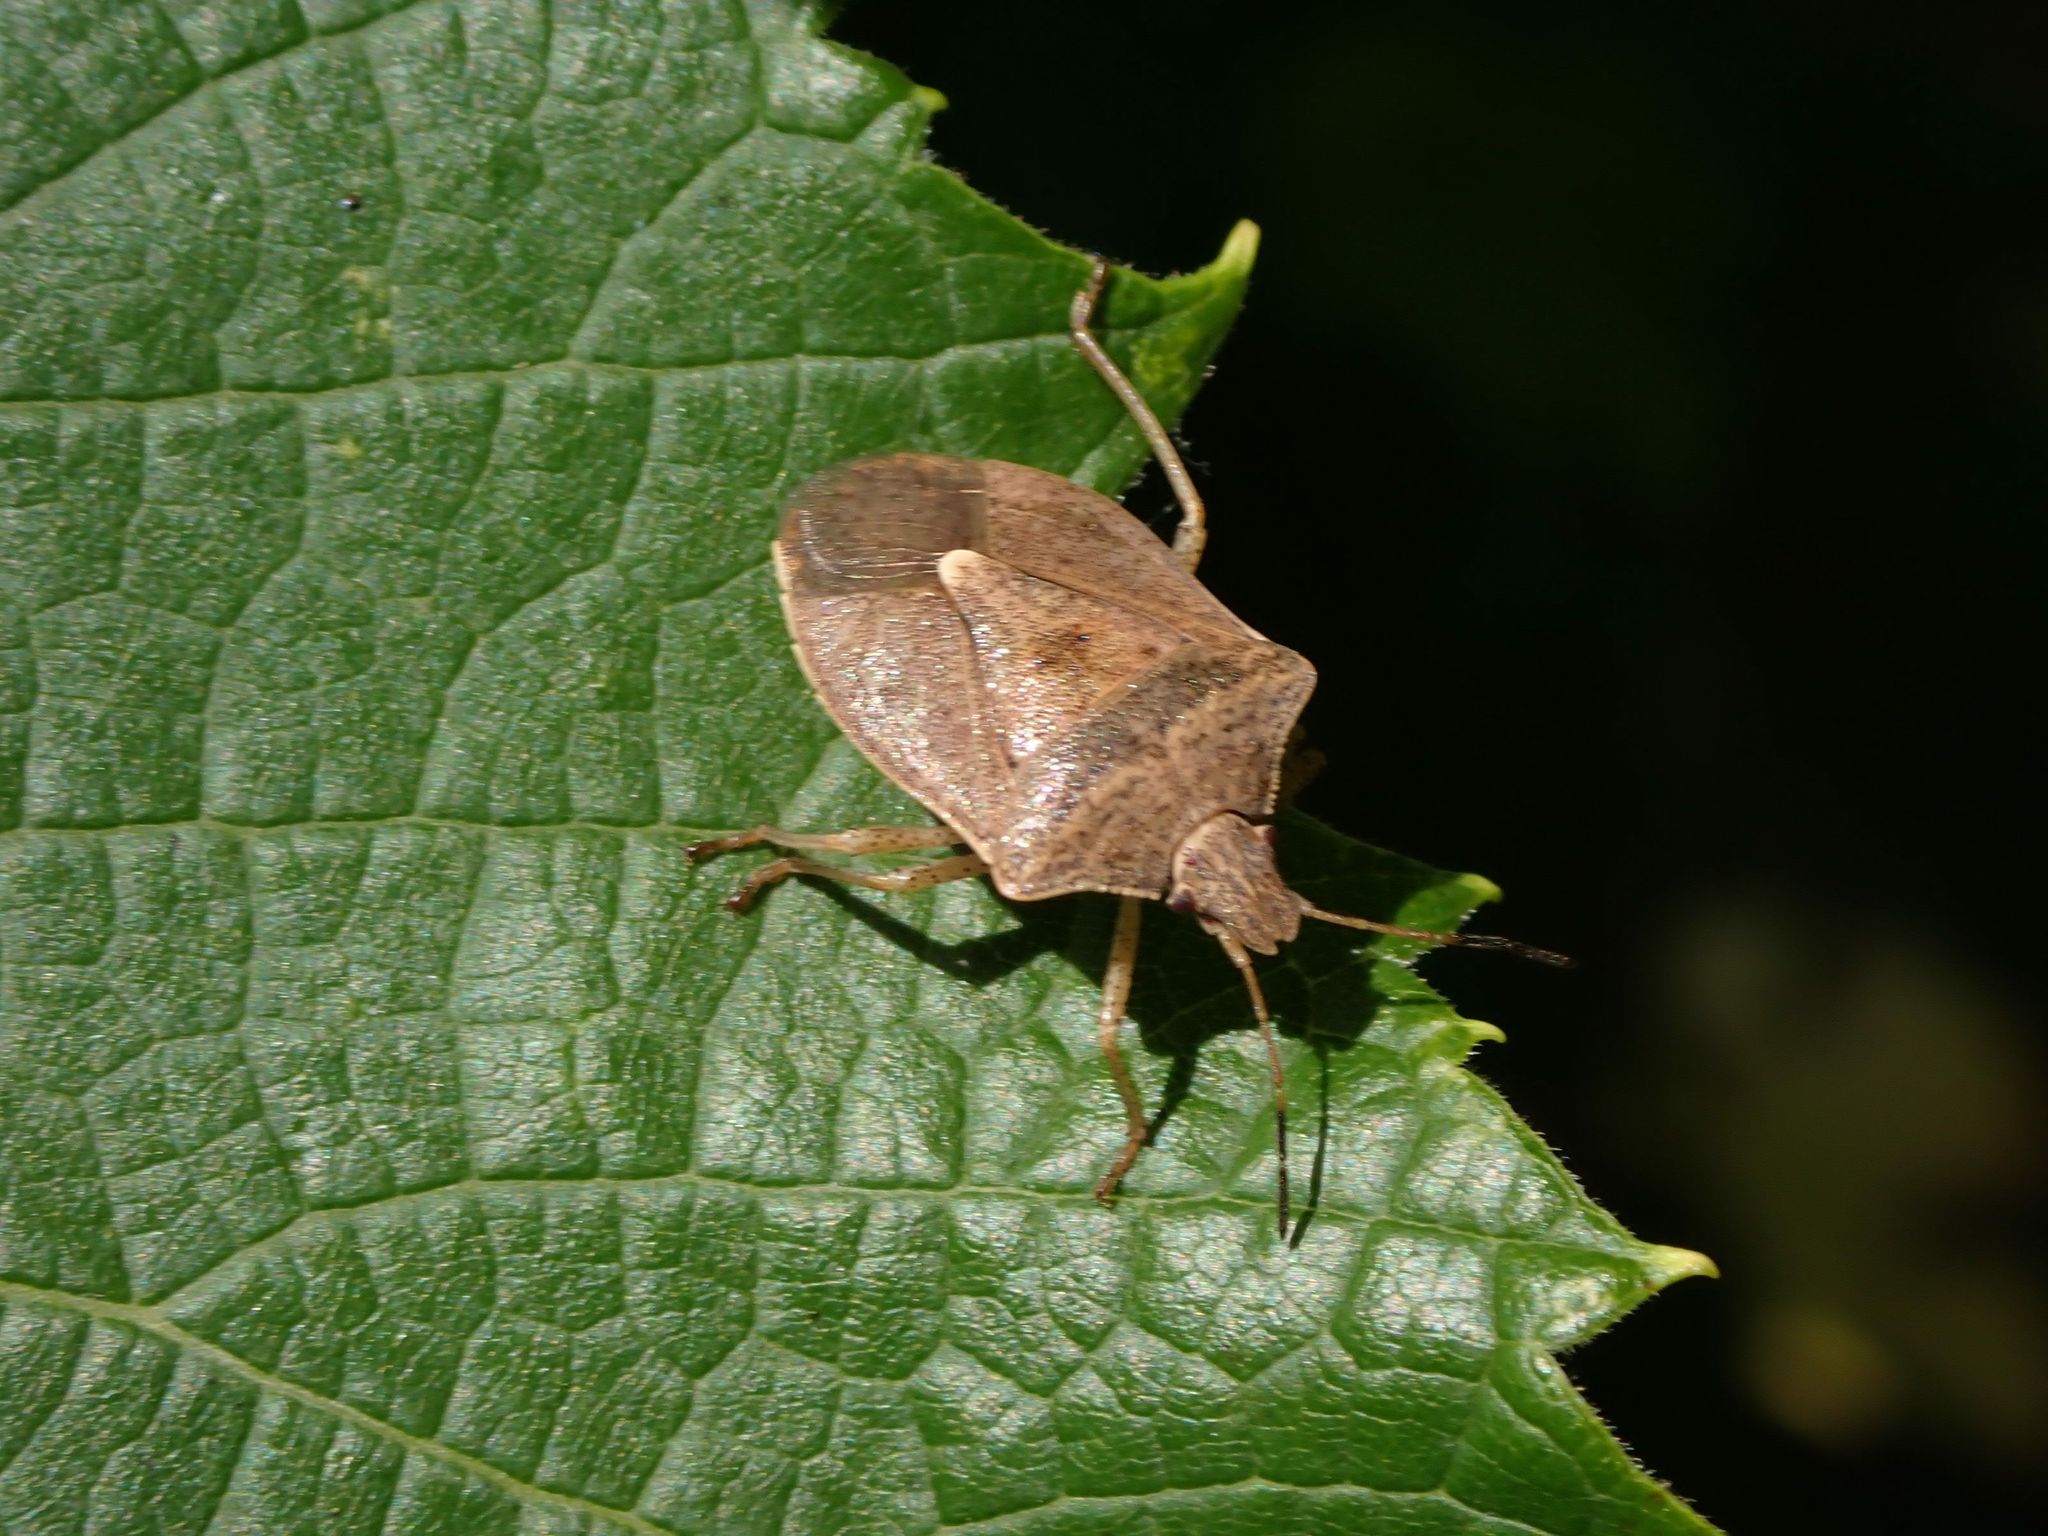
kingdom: Animalia
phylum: Arthropoda
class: Insecta
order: Hemiptera
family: Pentatomidae
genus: Euschistus
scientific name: Euschistus servus
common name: Brown stink bug
